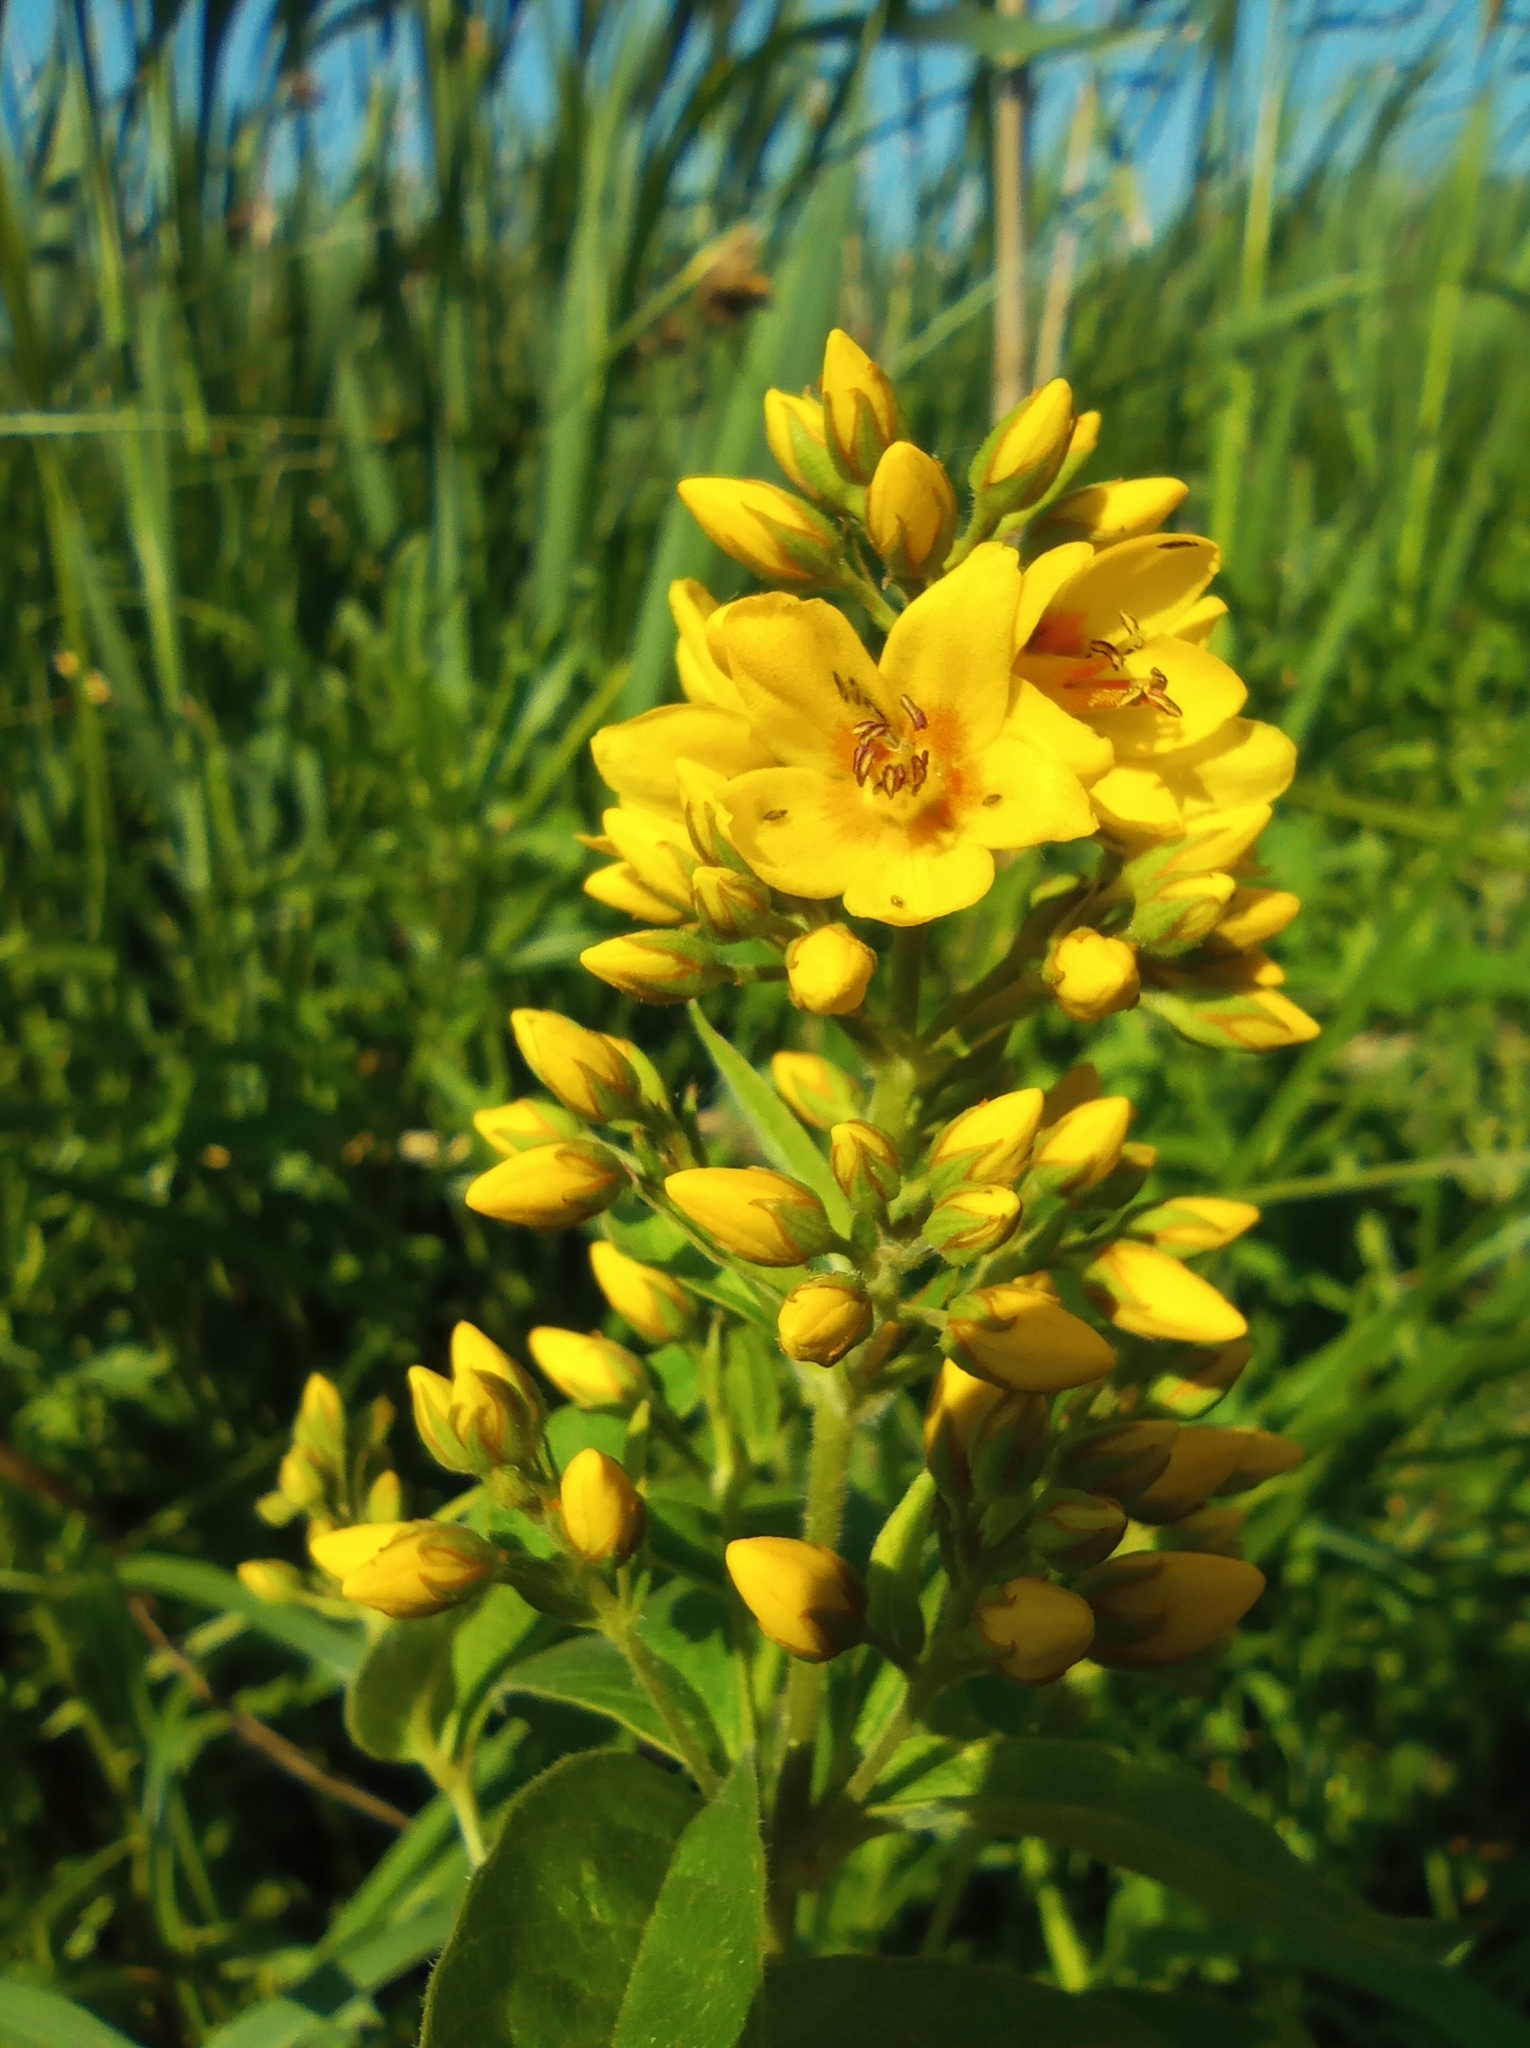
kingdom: Plantae
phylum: Tracheophyta
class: Magnoliopsida
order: Ericales
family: Primulaceae
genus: Lysimachia
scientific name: Lysimachia vulgaris
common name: Yellow loosestrife
